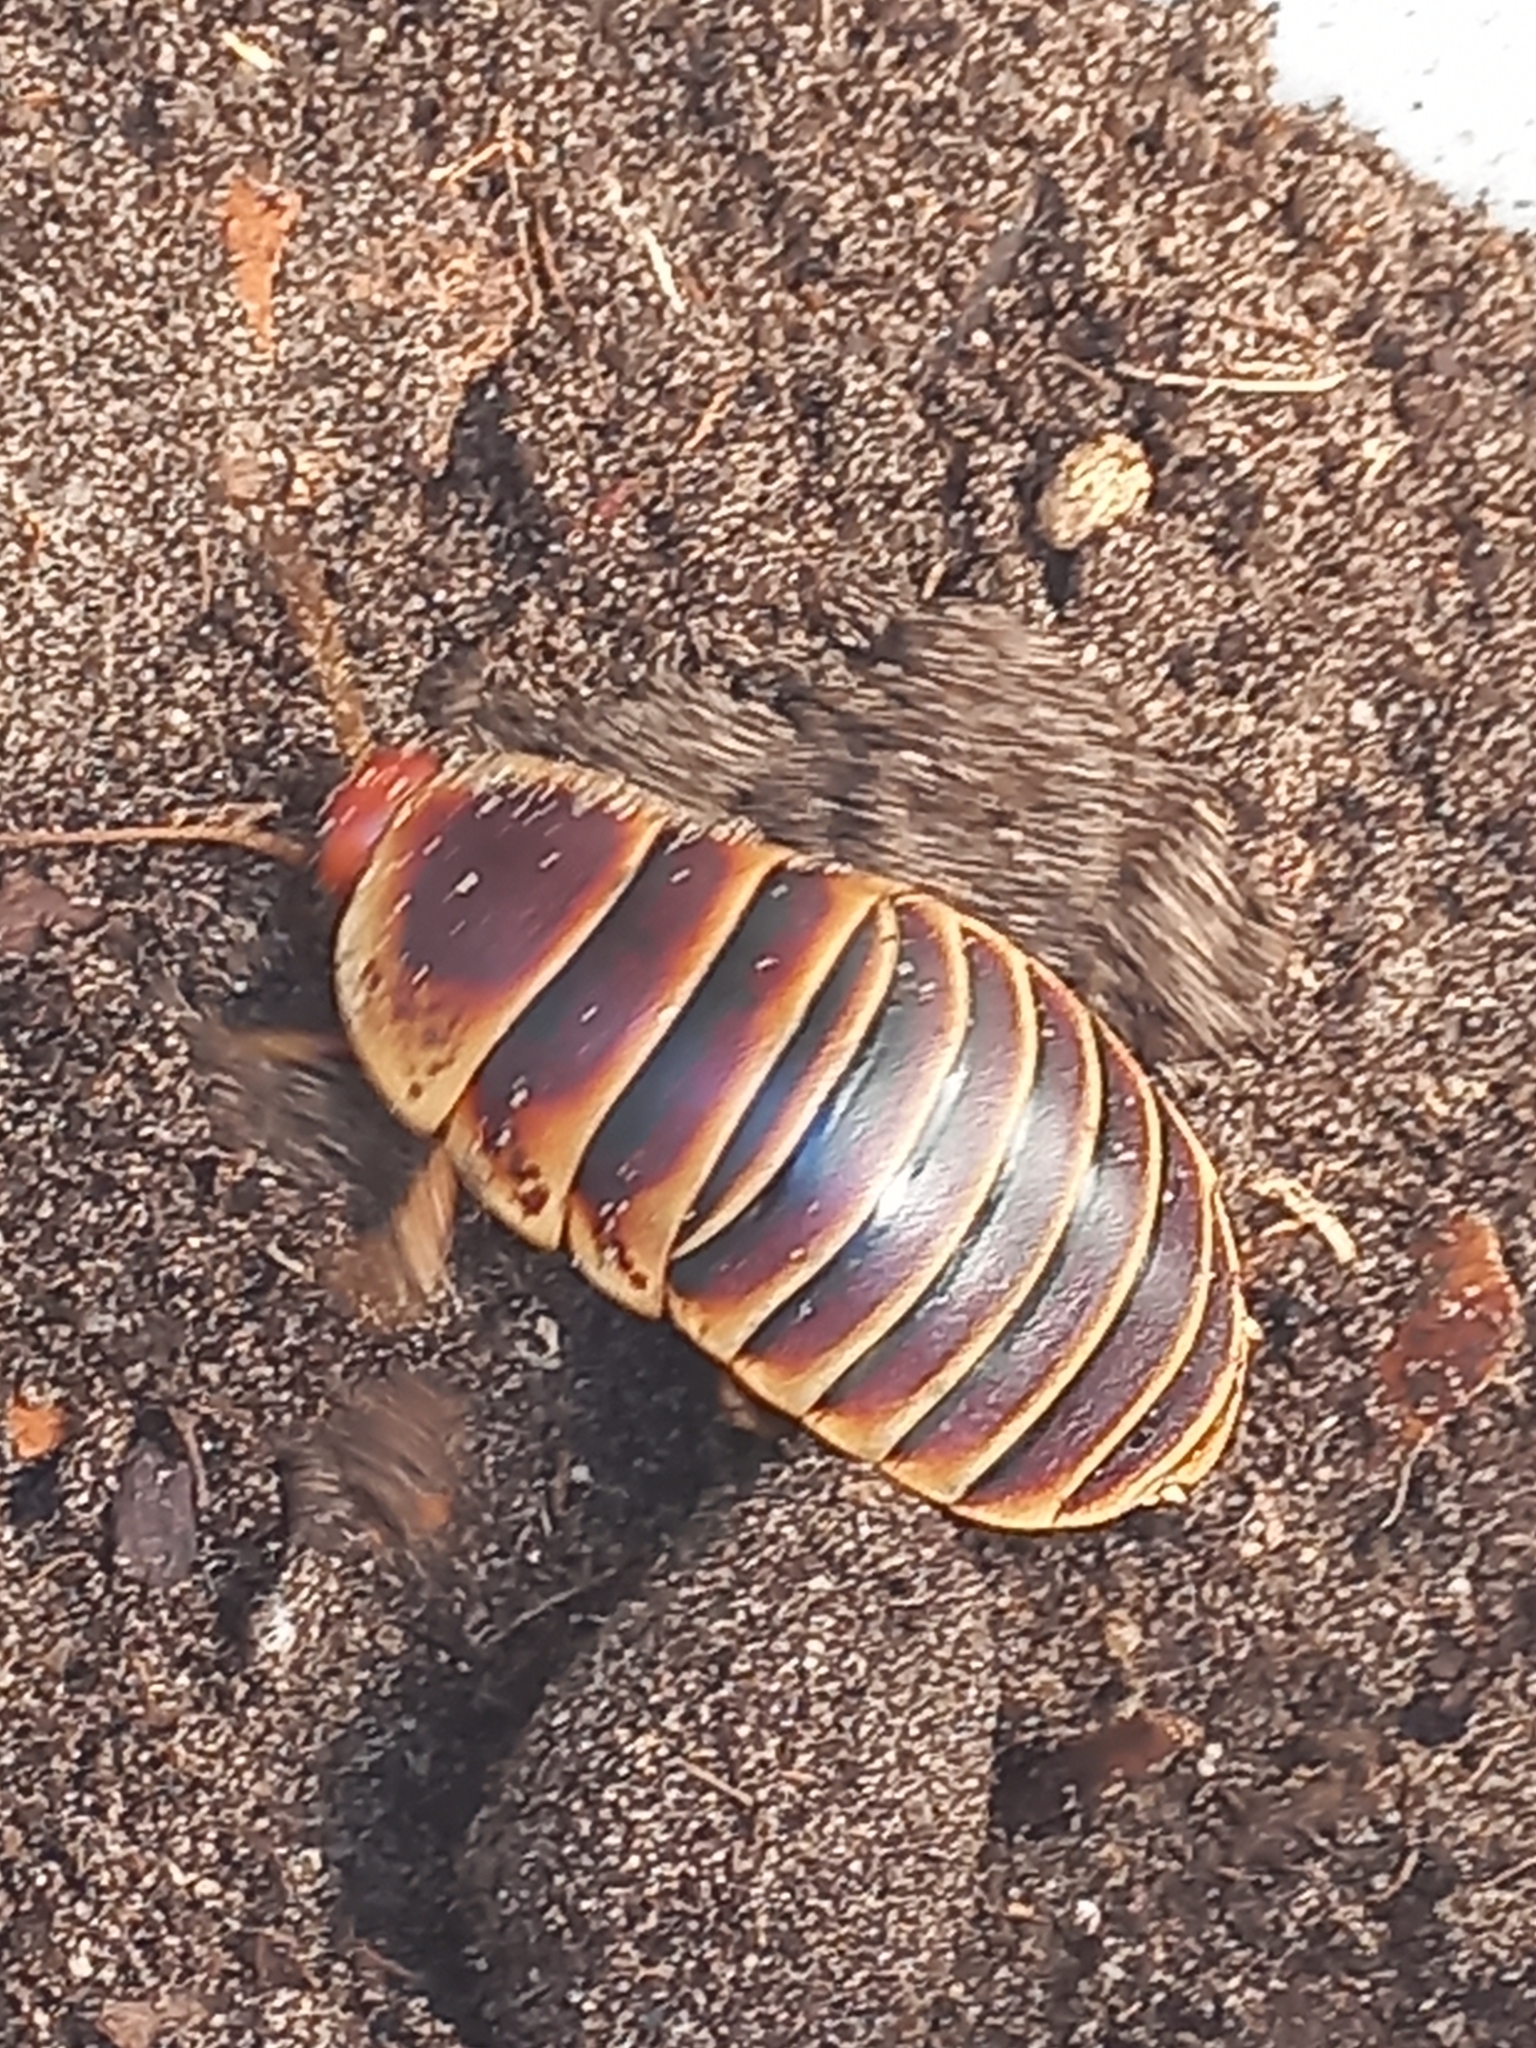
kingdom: Animalia
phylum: Arthropoda
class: Insecta
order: Blattodea
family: Blaberidae
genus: Aptera
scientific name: Aptera fusca
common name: Cape mountain cockroach
